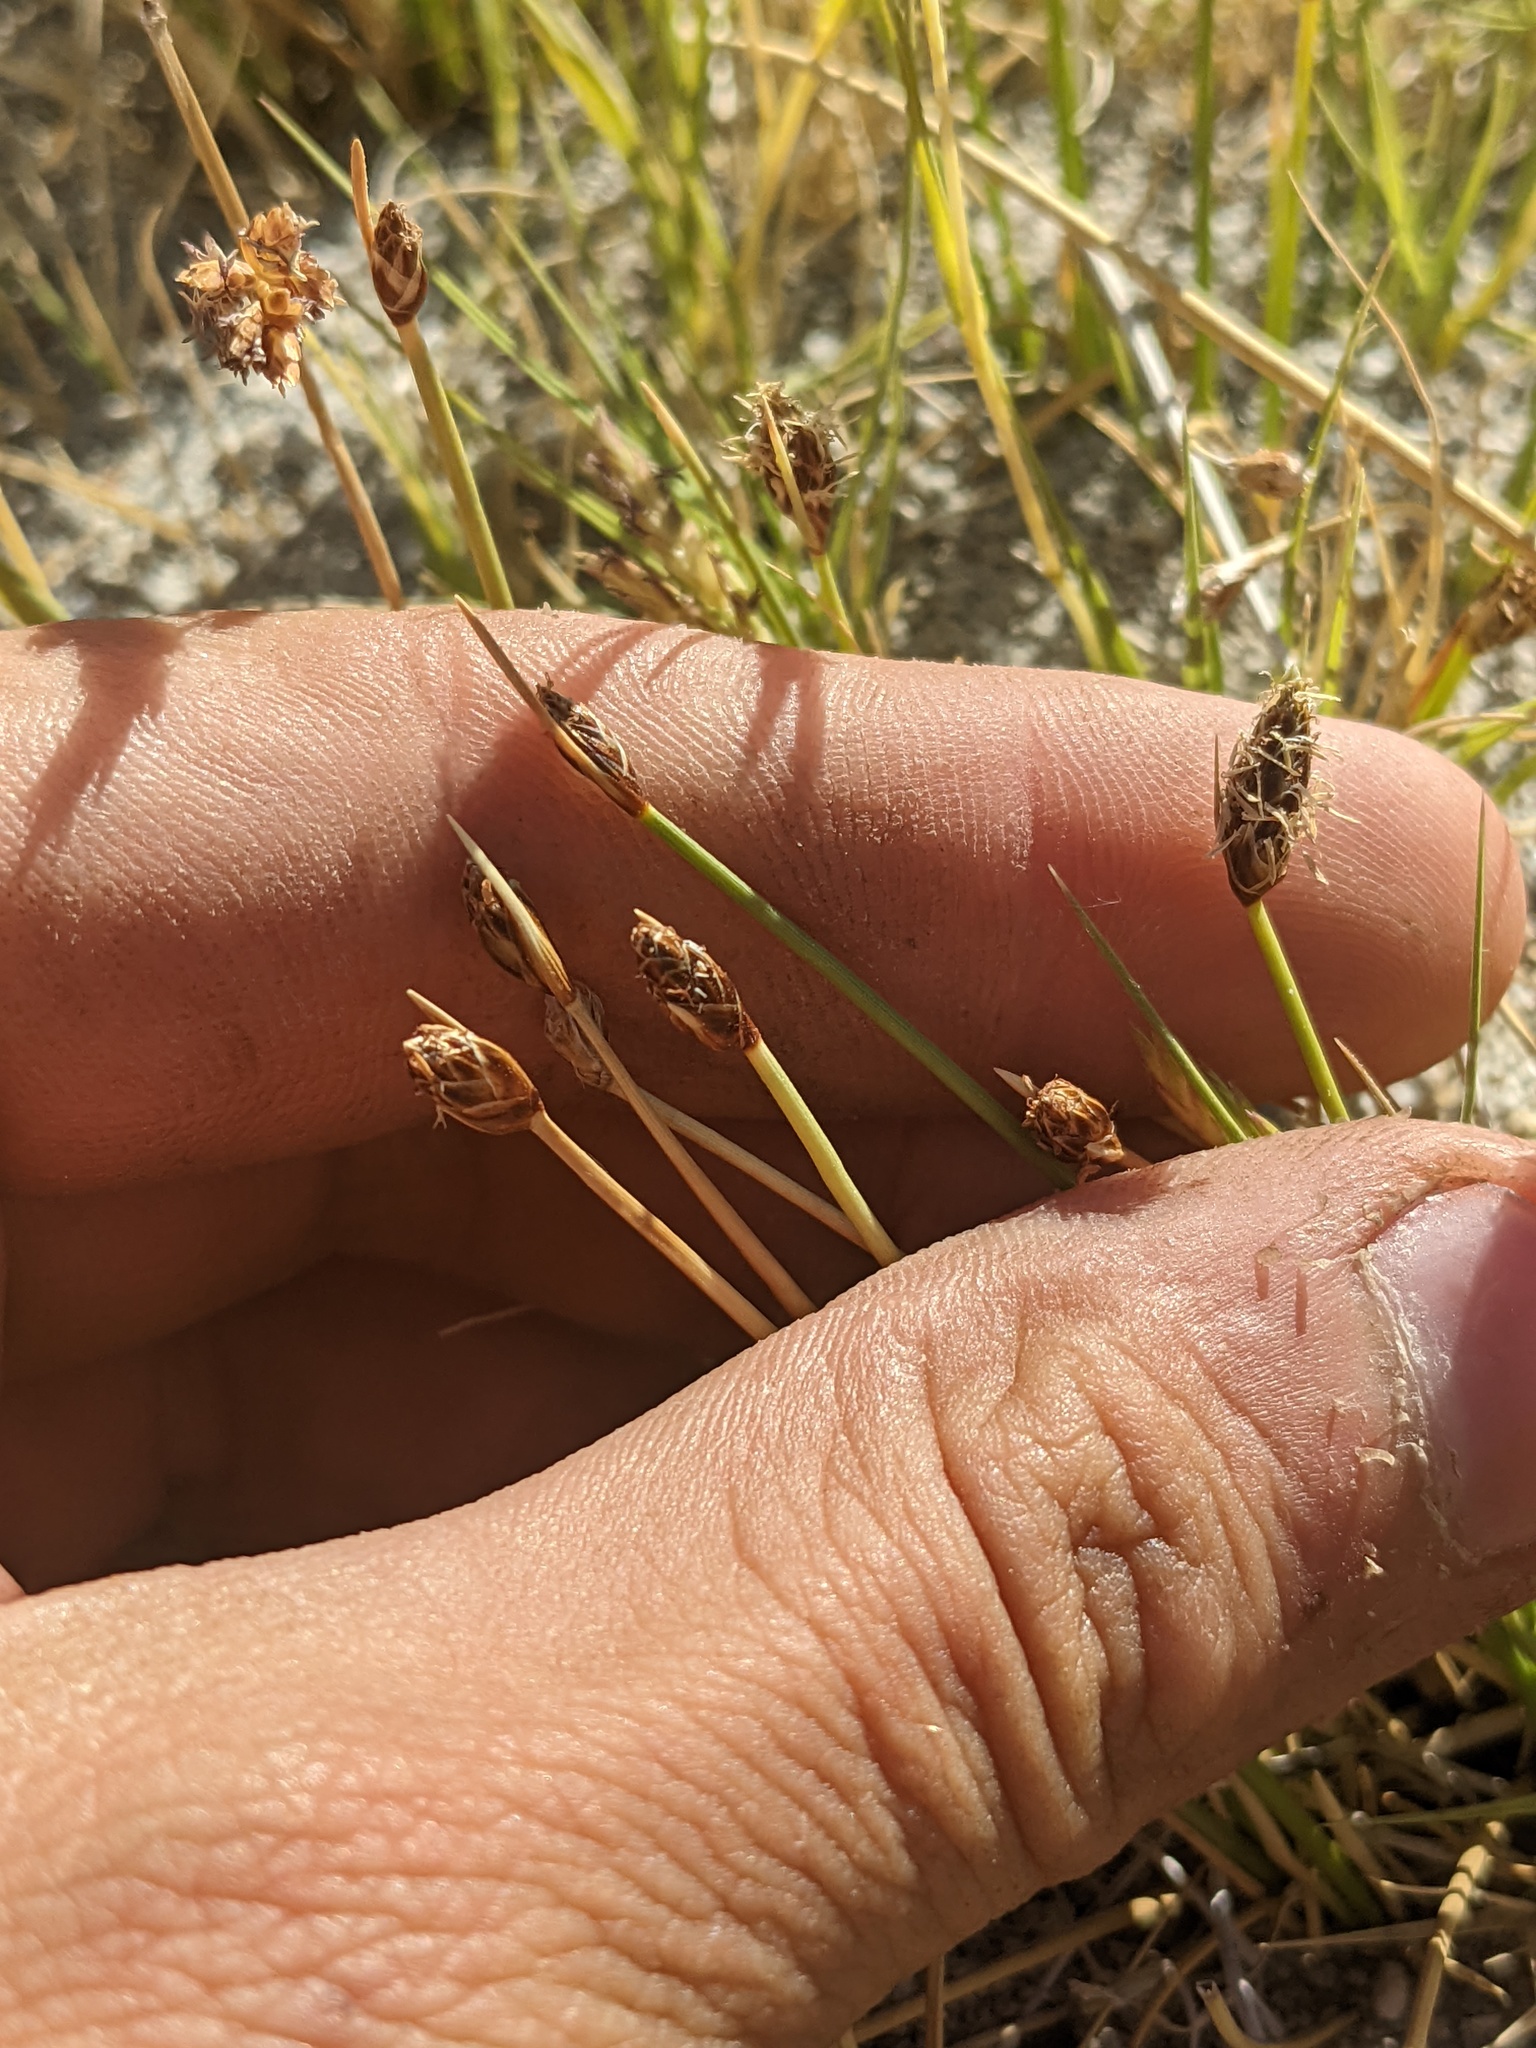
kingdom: Plantae
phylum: Tracheophyta
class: Liliopsida
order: Poales
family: Cyperaceae
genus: Amphiscirpus
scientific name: Amphiscirpus nevadensis
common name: Nevada bulrush
